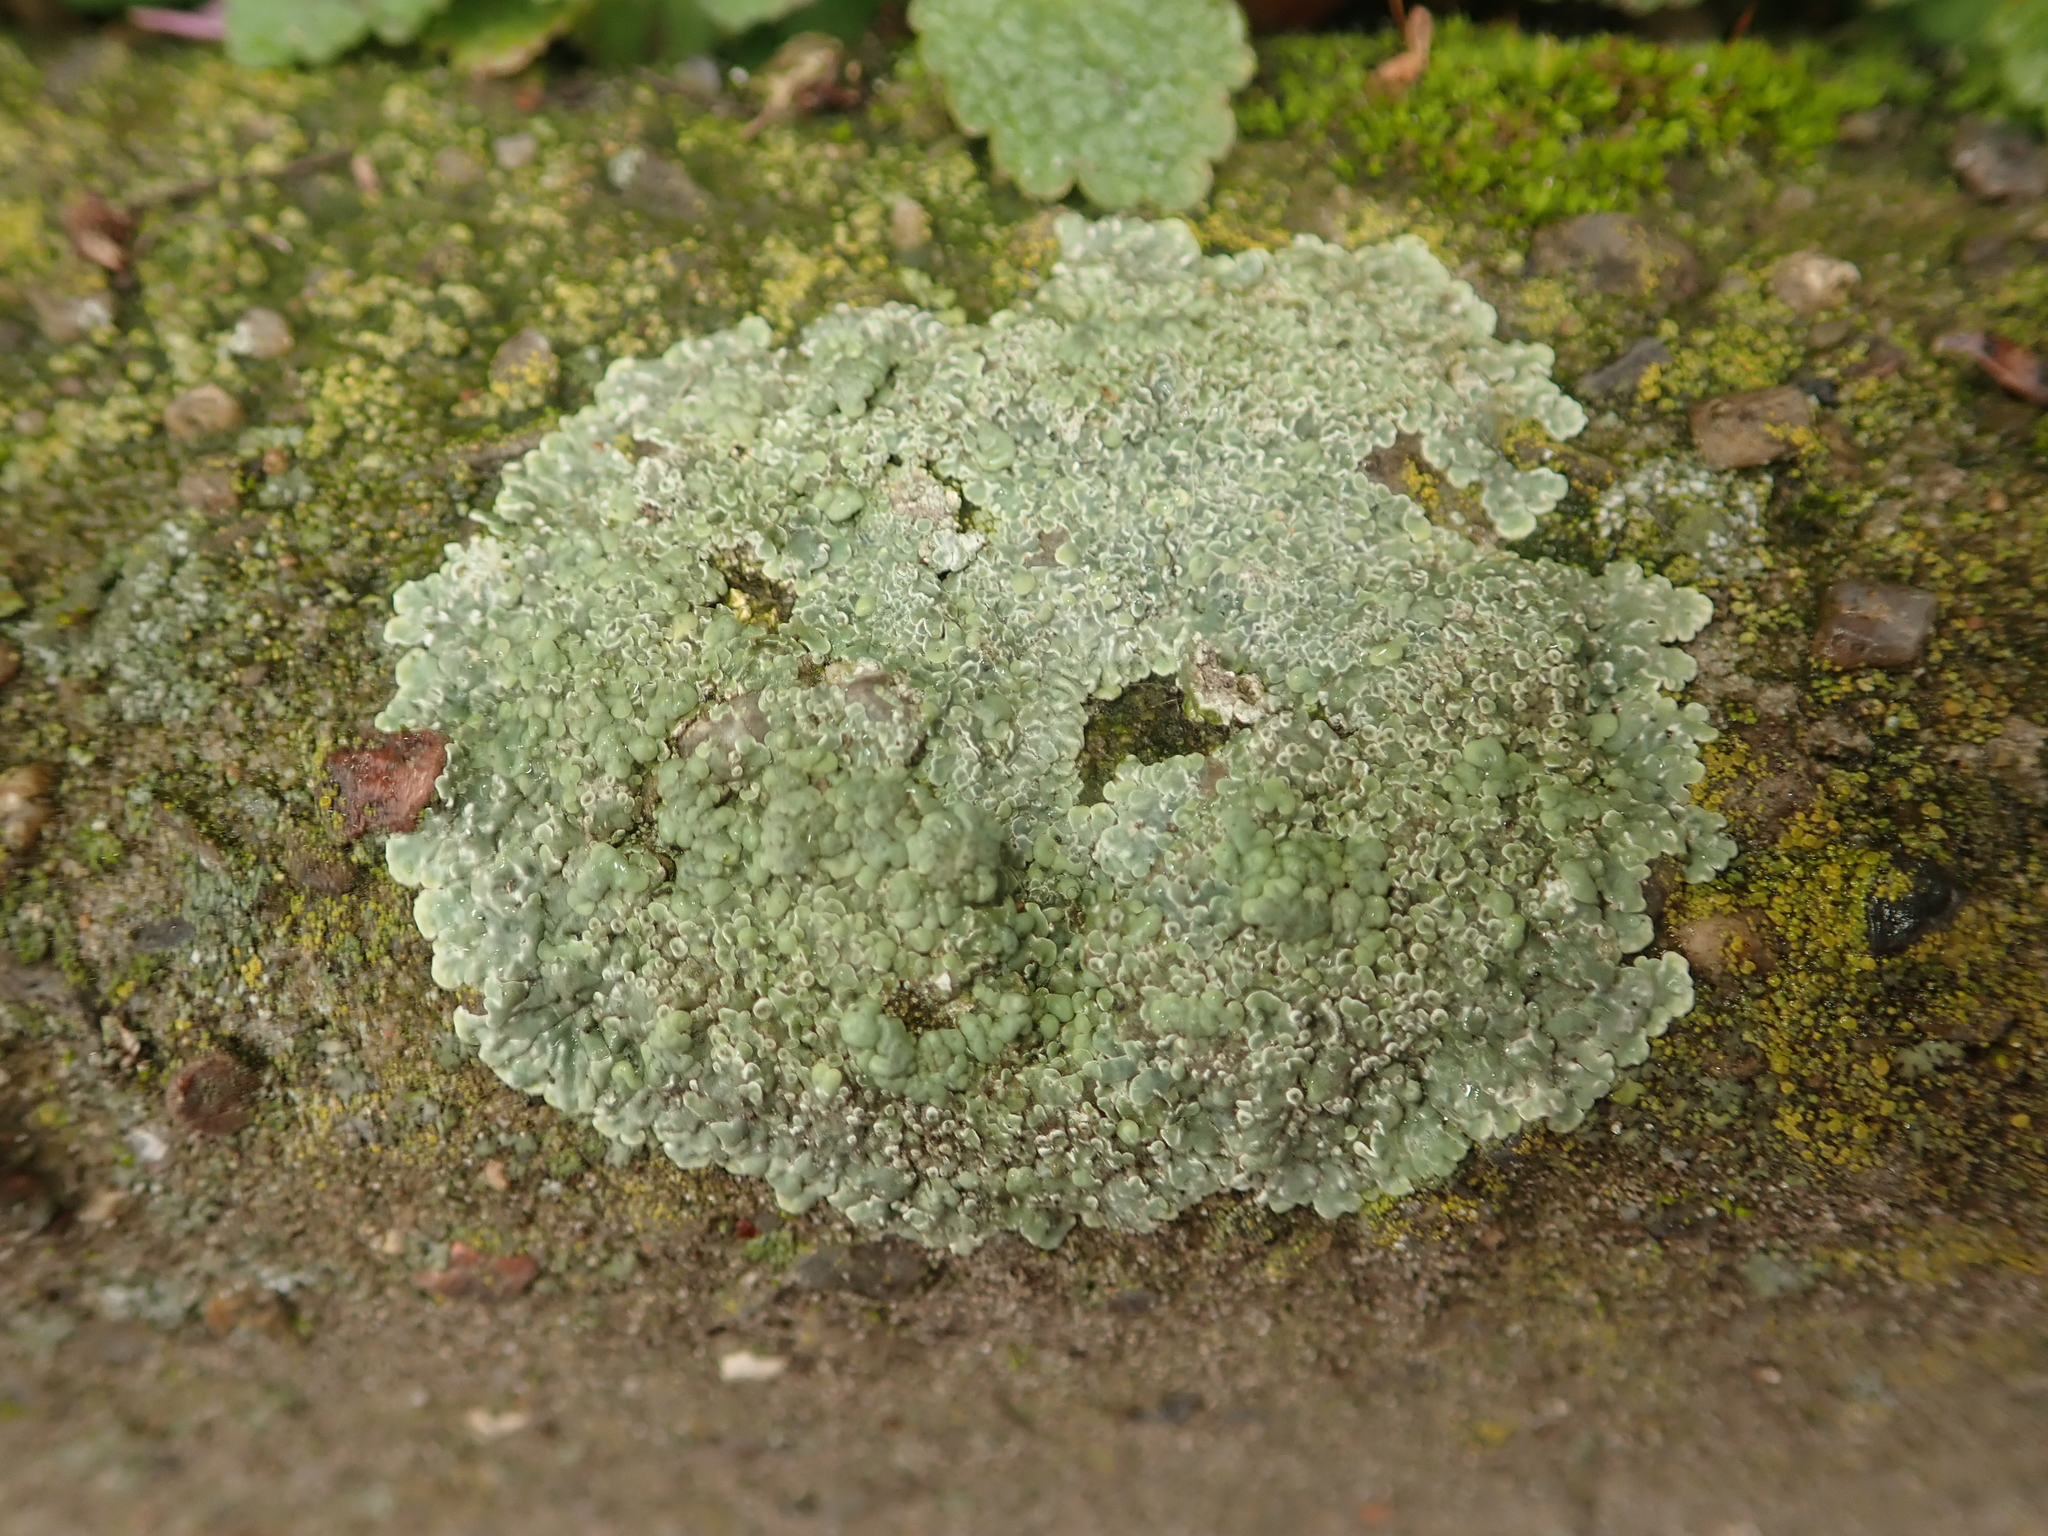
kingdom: Fungi
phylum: Ascomycota
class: Lecanoromycetes
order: Lecanorales
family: Lecanoraceae
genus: Protoparmeliopsis
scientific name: Protoparmeliopsis muralis
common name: Stonewall rim lichen
